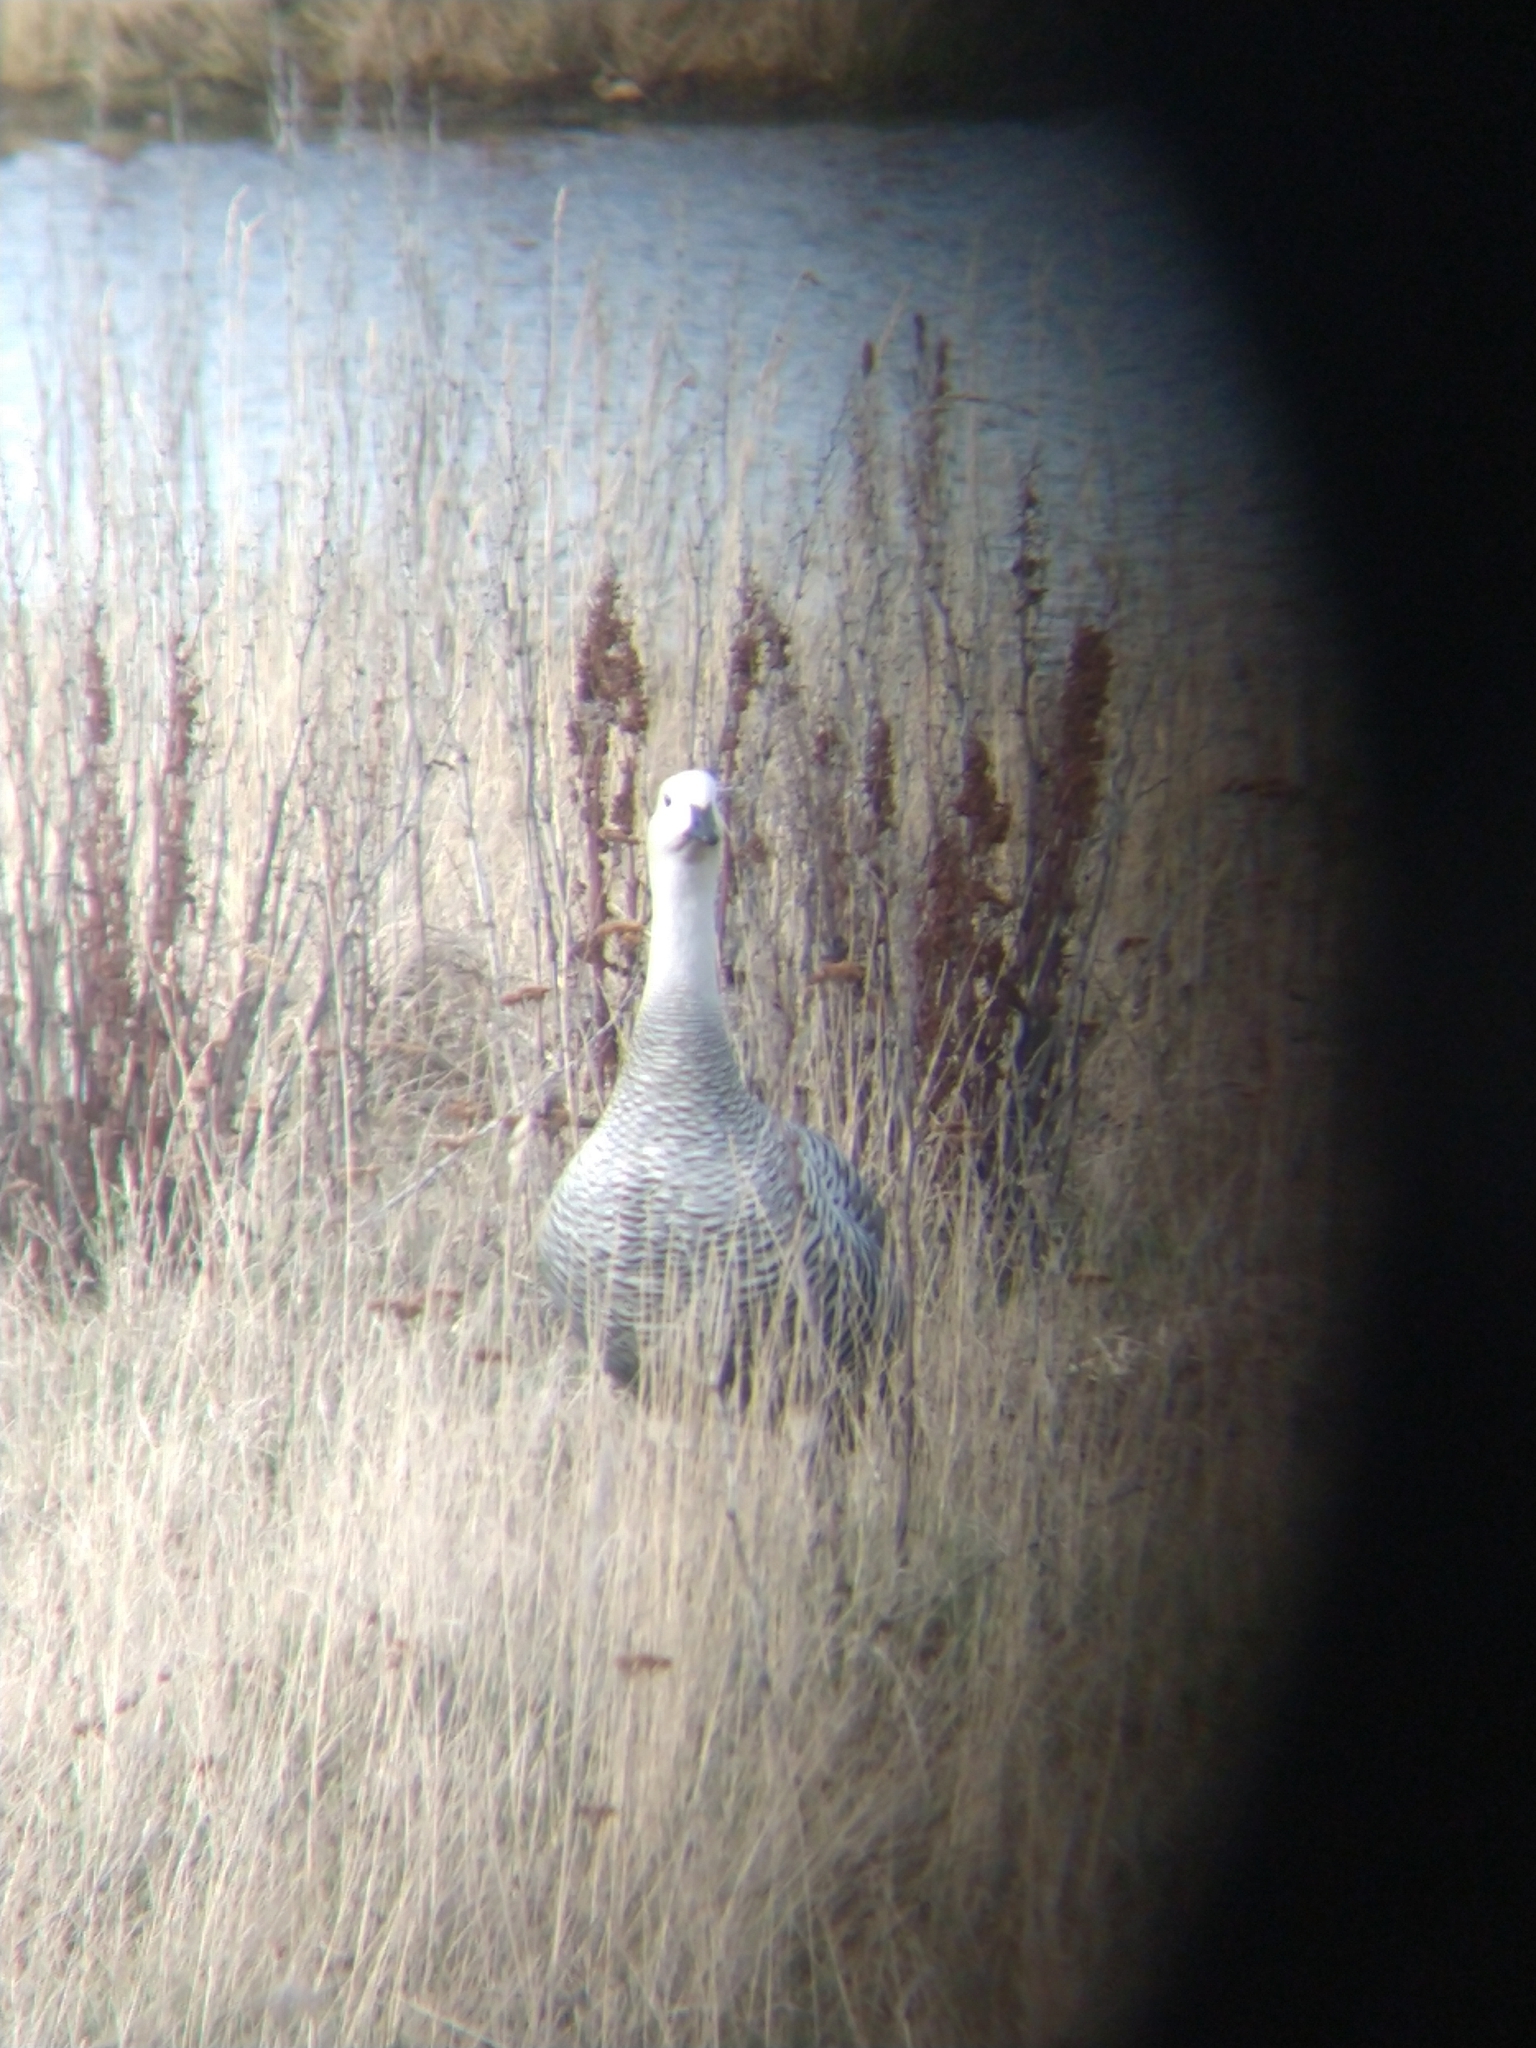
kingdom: Animalia
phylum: Chordata
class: Aves
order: Anseriformes
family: Anatidae
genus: Chloephaga
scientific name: Chloephaga picta
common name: Upland goose
